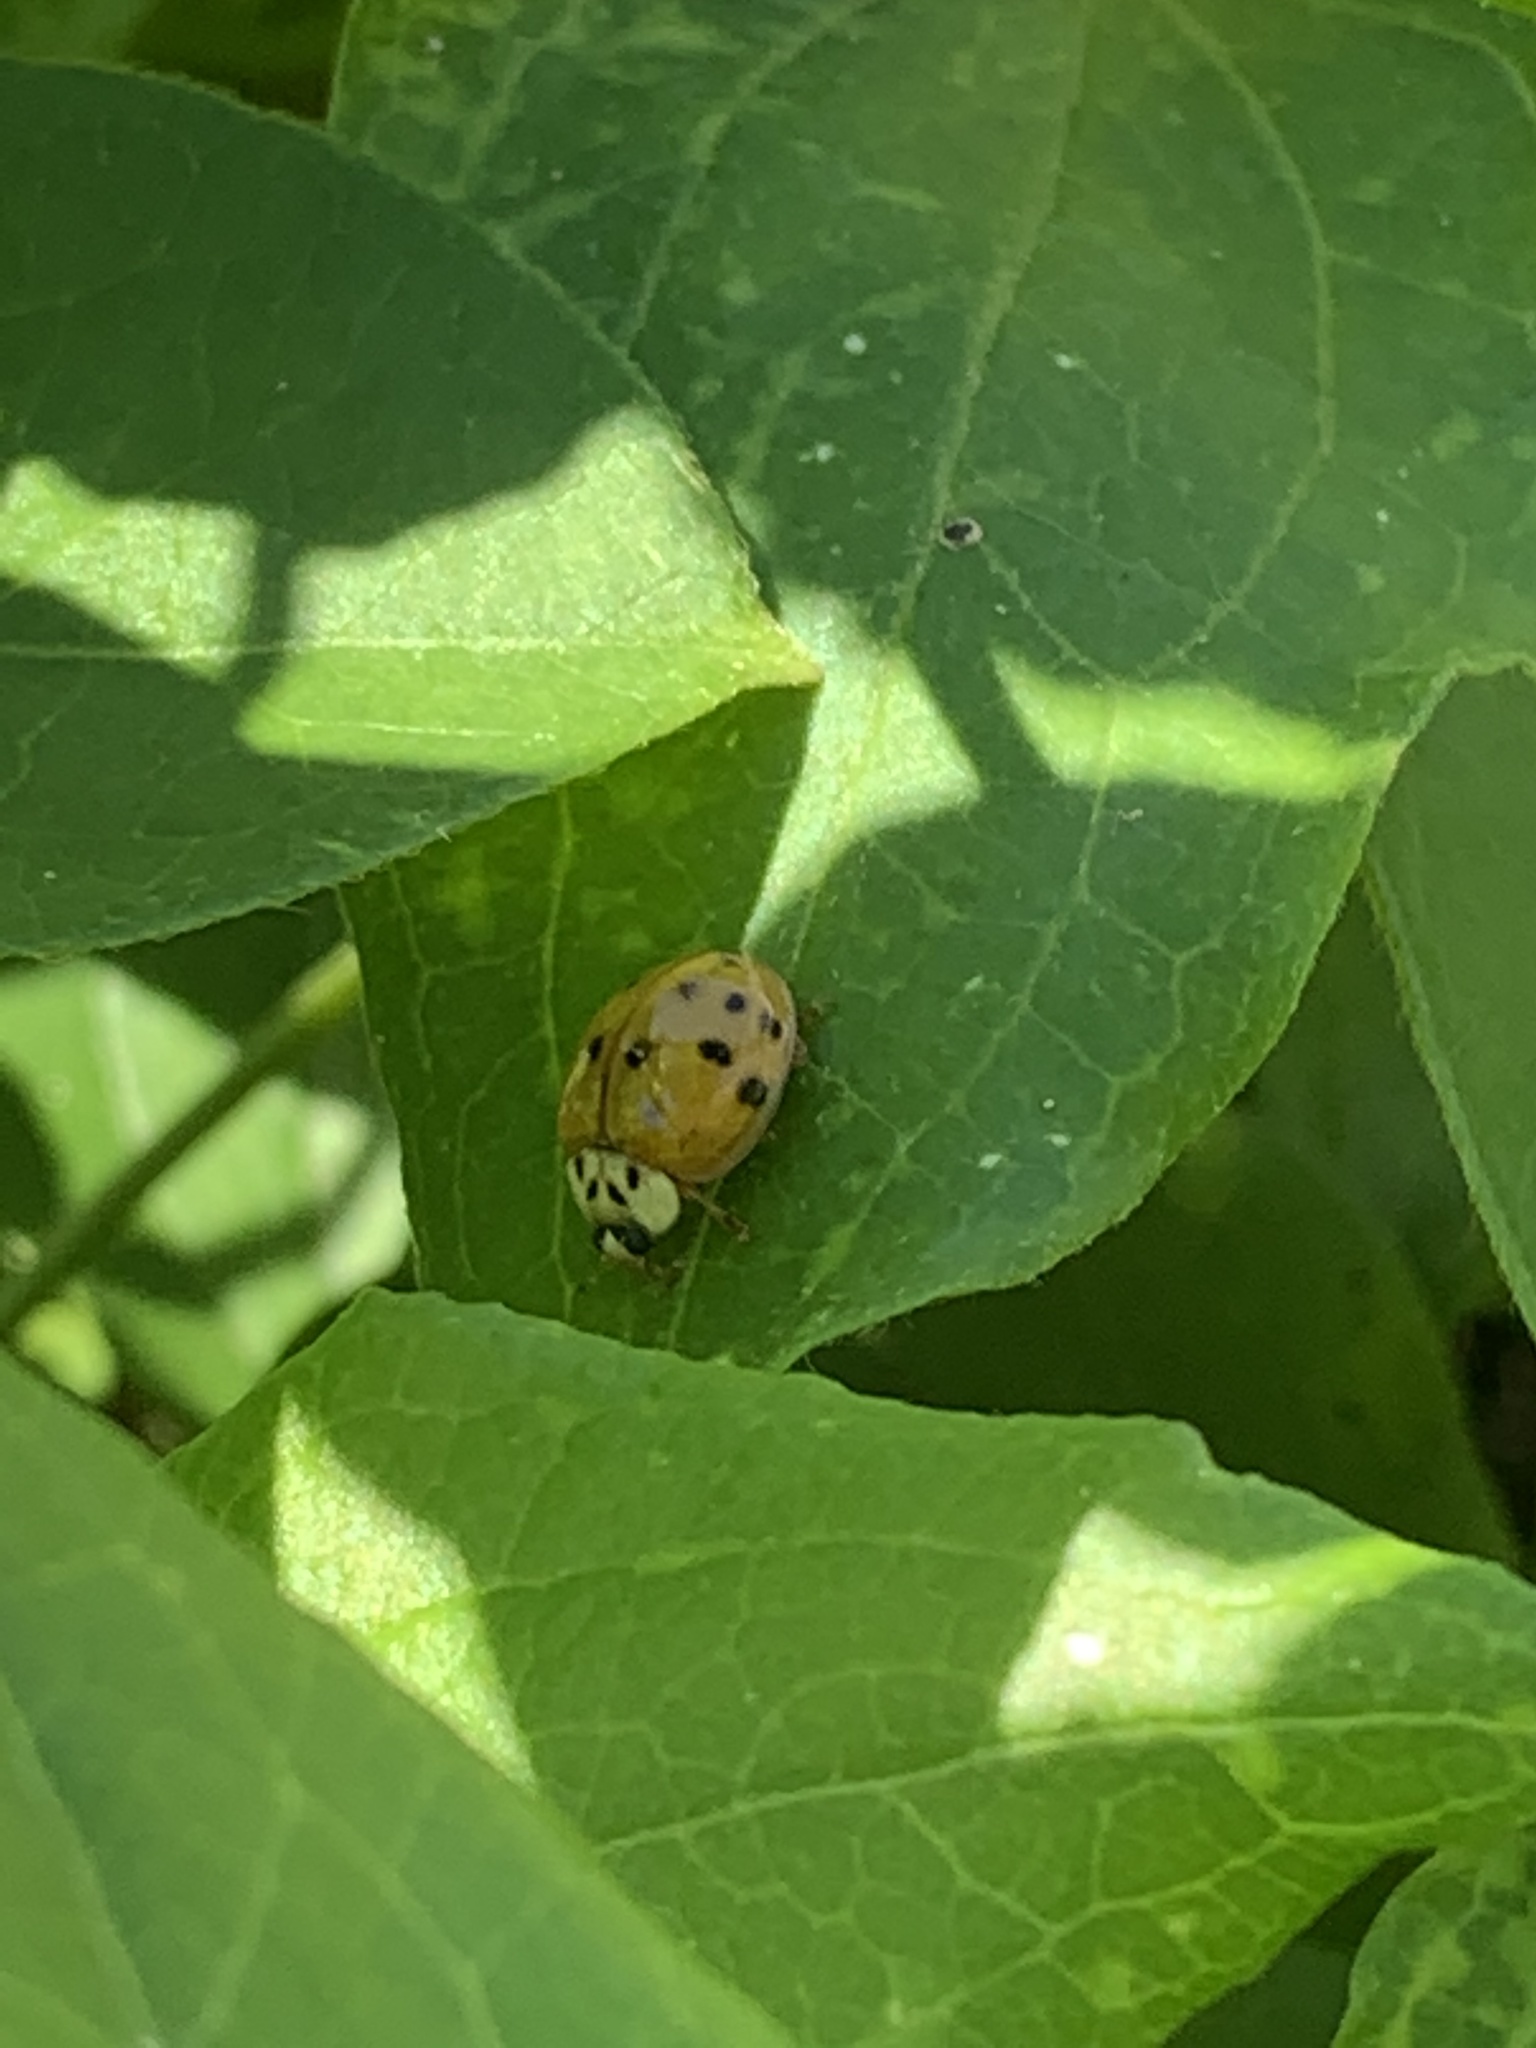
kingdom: Animalia
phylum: Arthropoda
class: Insecta
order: Coleoptera
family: Coccinellidae
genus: Harmonia
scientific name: Harmonia axyridis
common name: Harlequin ladybird
